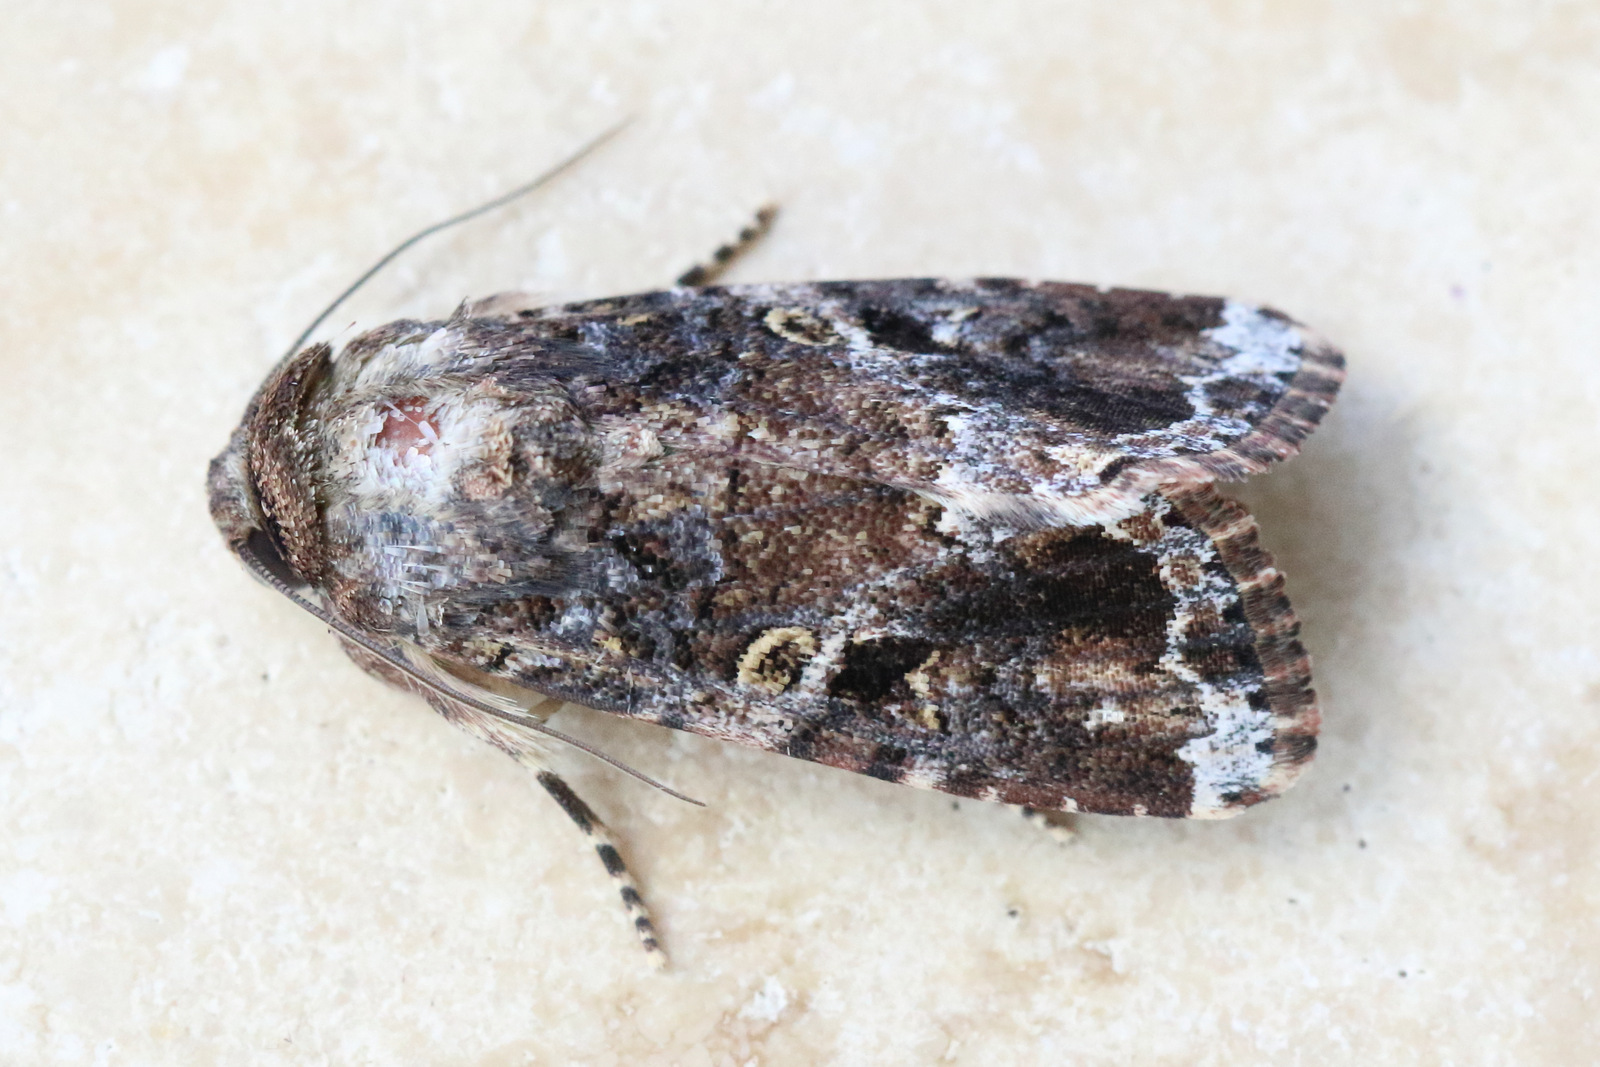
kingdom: Animalia
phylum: Arthropoda
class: Insecta
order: Lepidoptera
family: Noctuidae
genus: Spodoptera
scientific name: Spodoptera mauritia
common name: Lawn armyworm
